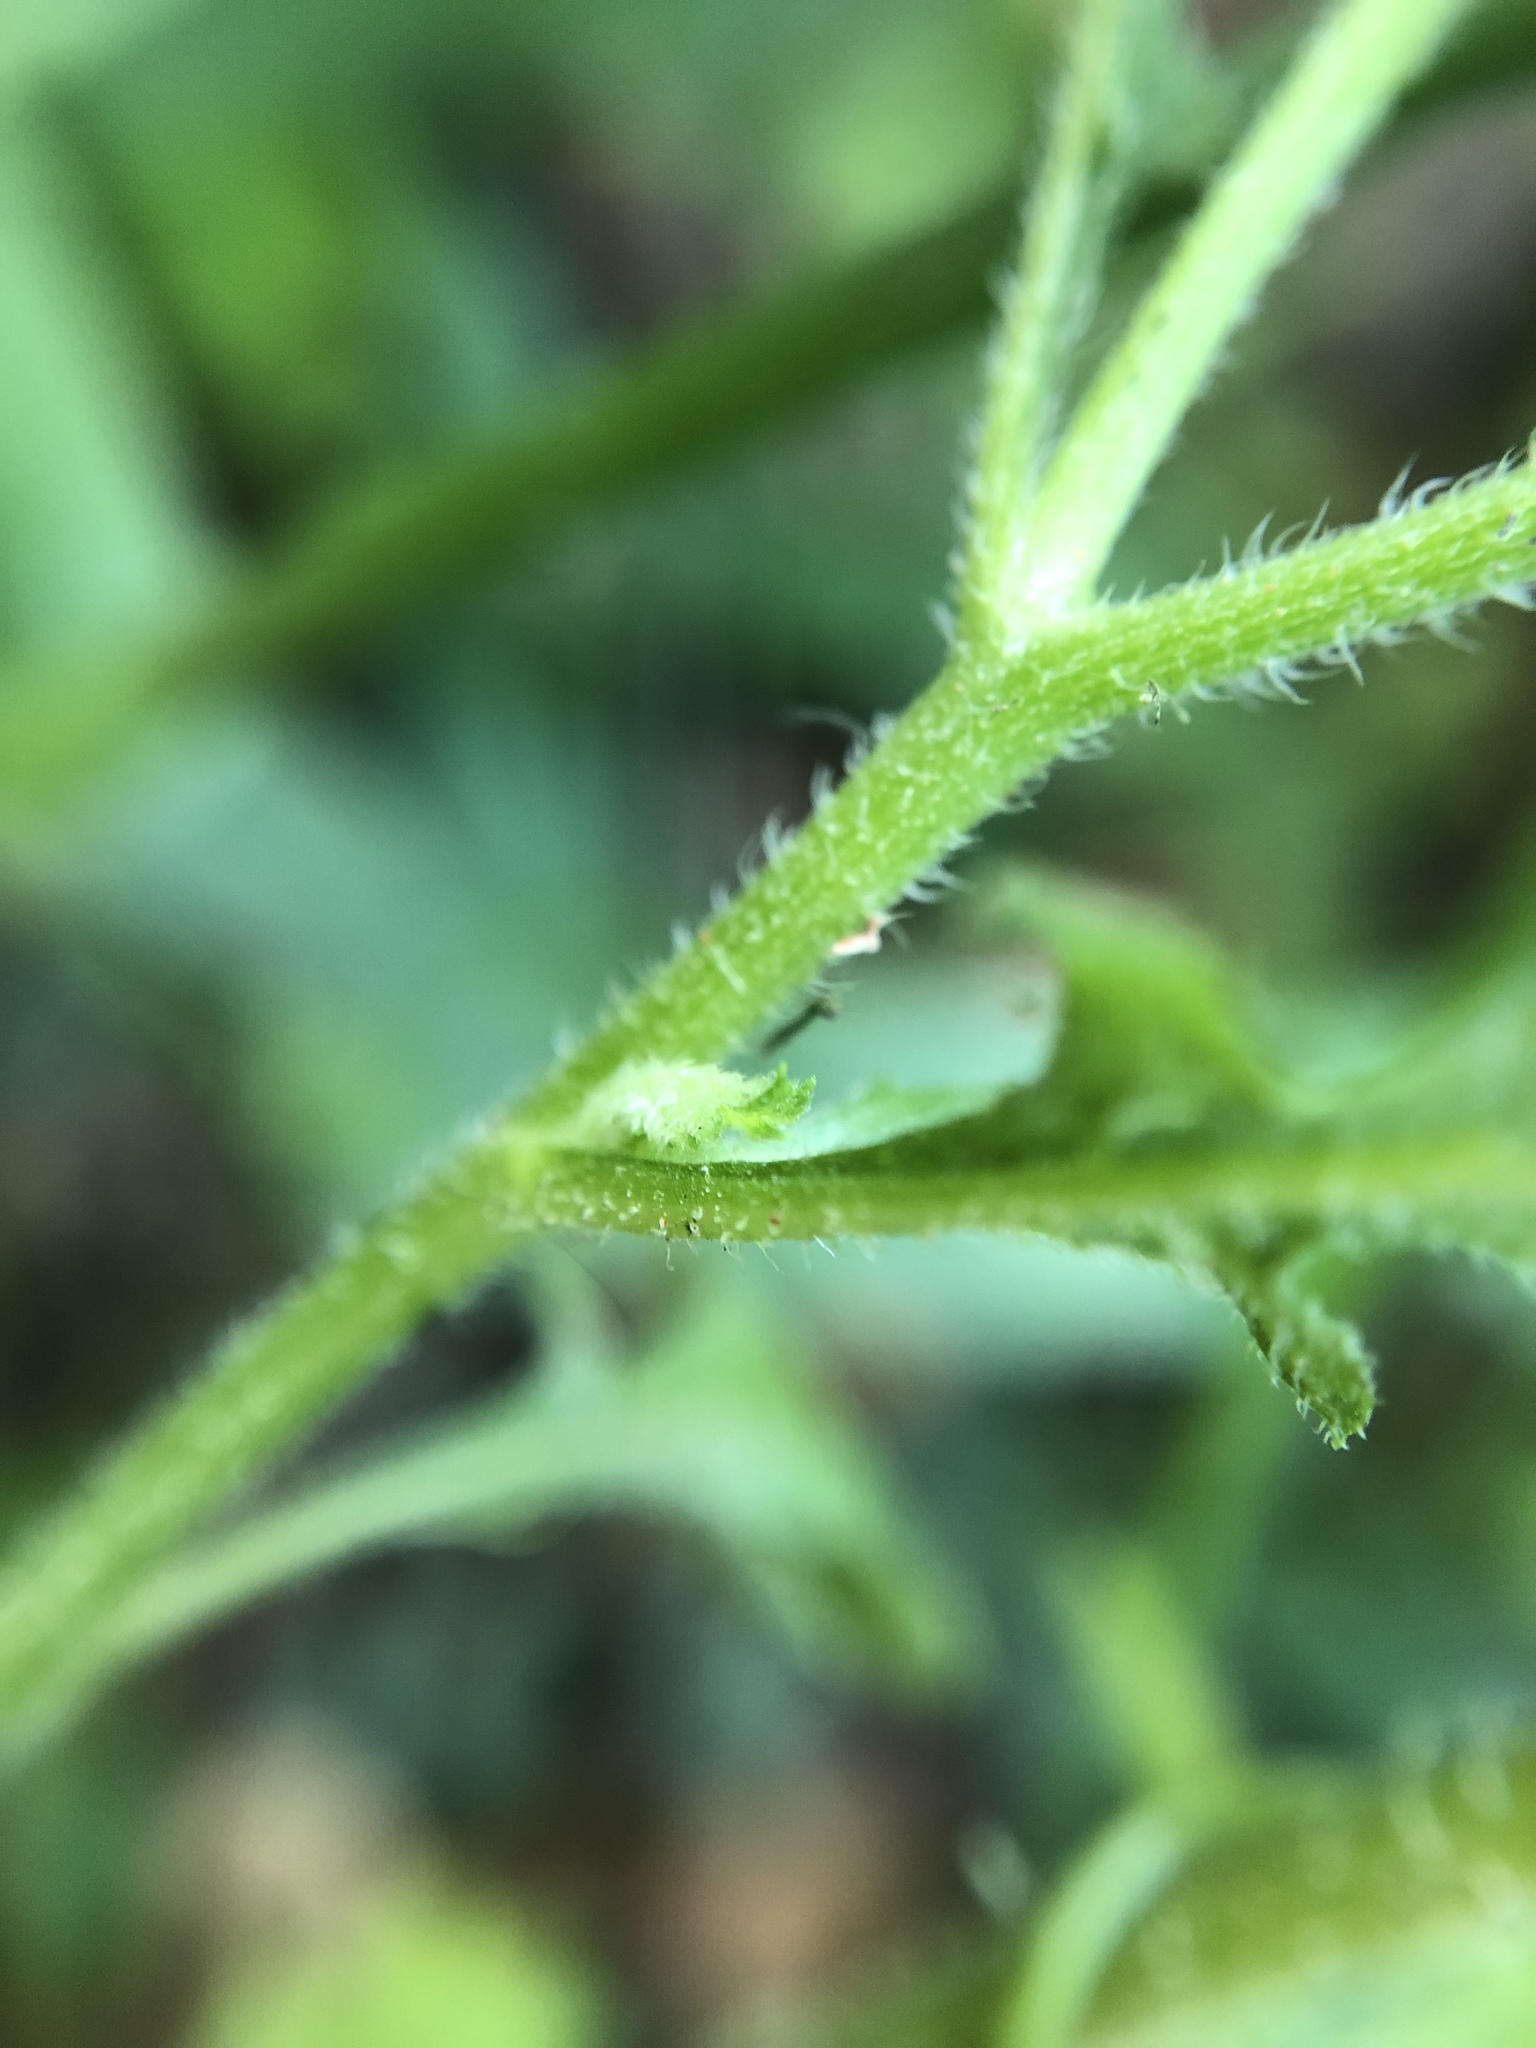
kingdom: Plantae
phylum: Tracheophyta
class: Magnoliopsida
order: Asterales
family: Asteraceae
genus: Dichrocephala
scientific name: Dichrocephala integrifolia
